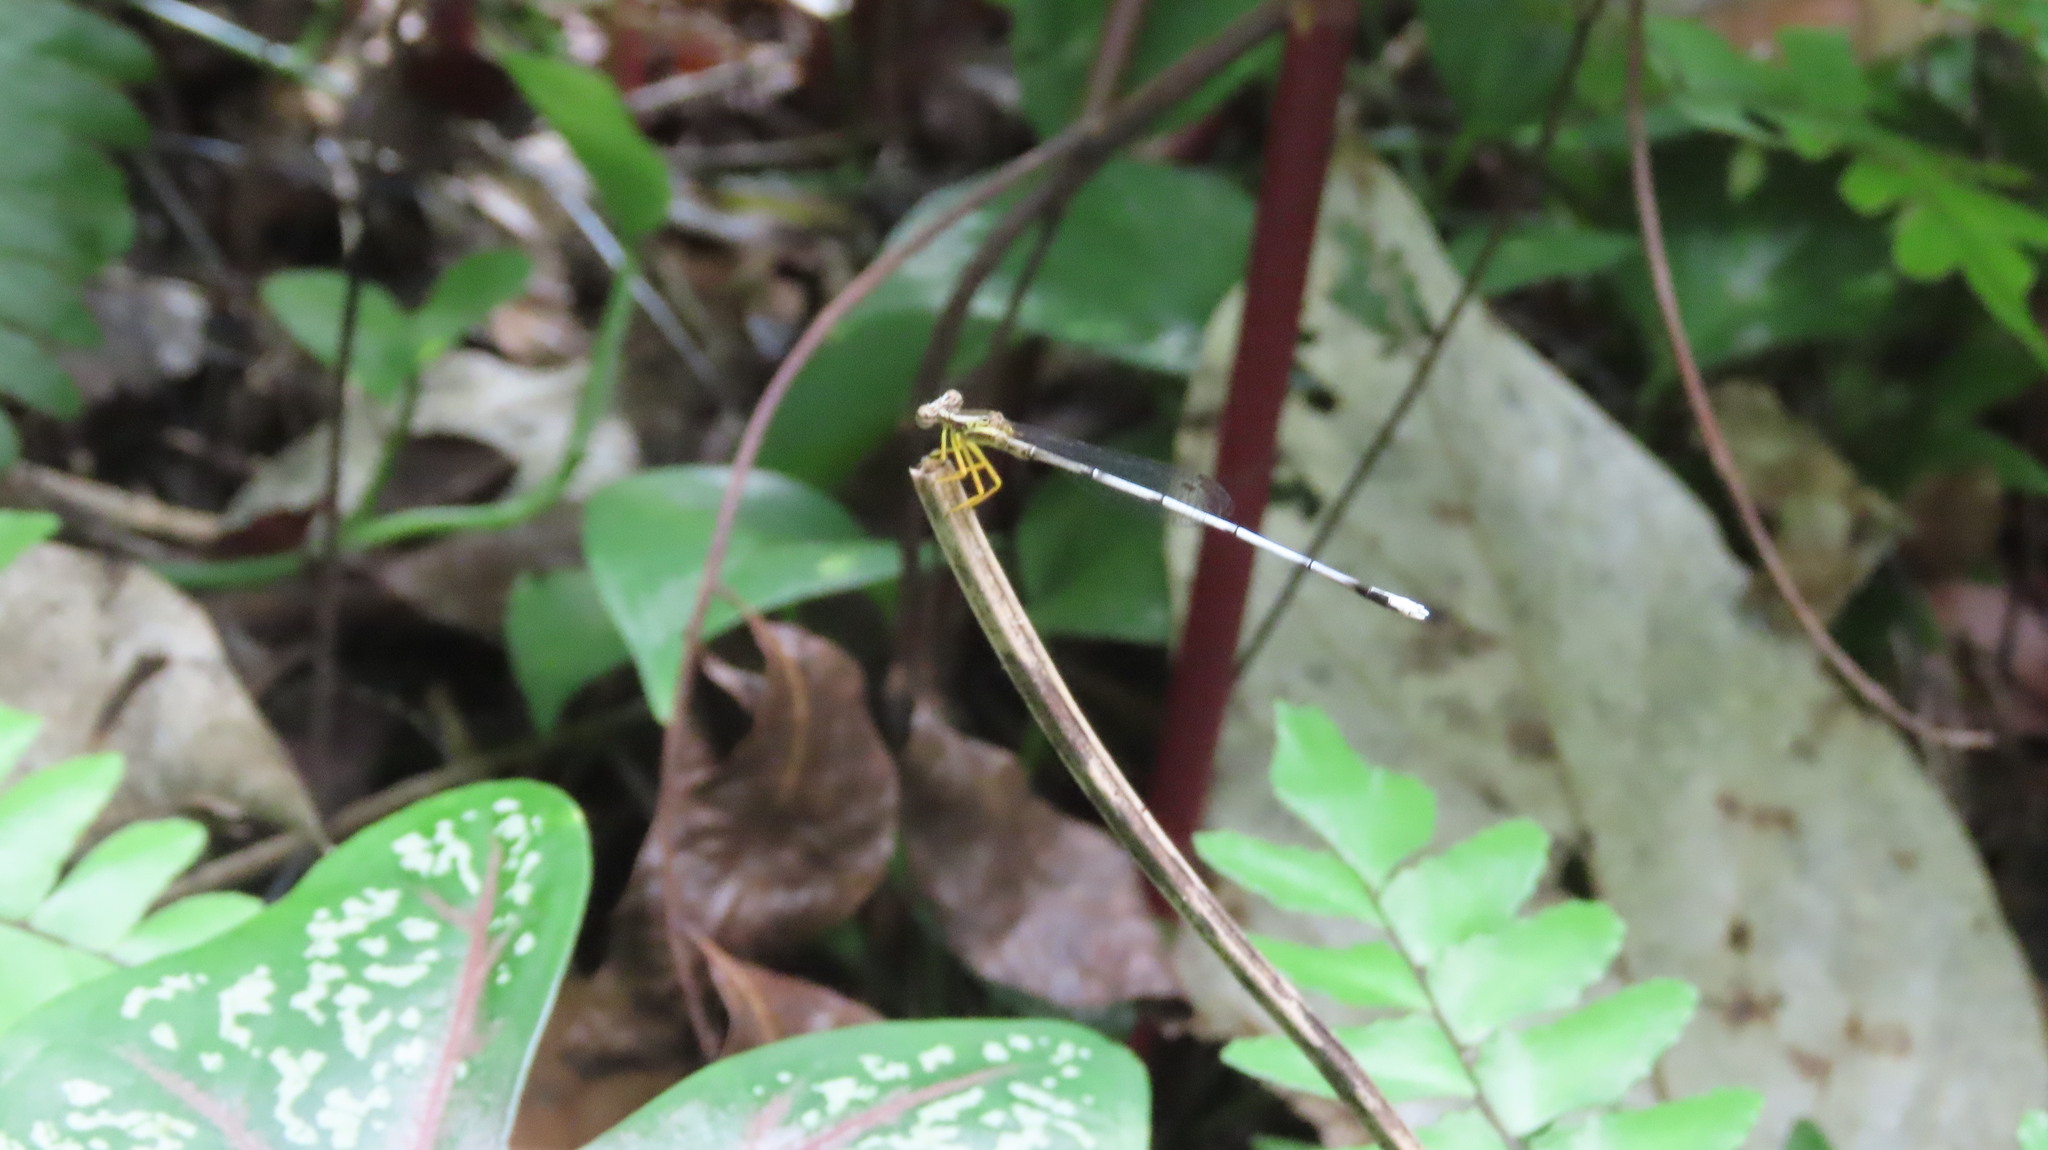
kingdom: Animalia
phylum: Arthropoda
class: Insecta
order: Odonata
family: Platycnemididae
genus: Copera
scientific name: Copera vittata
